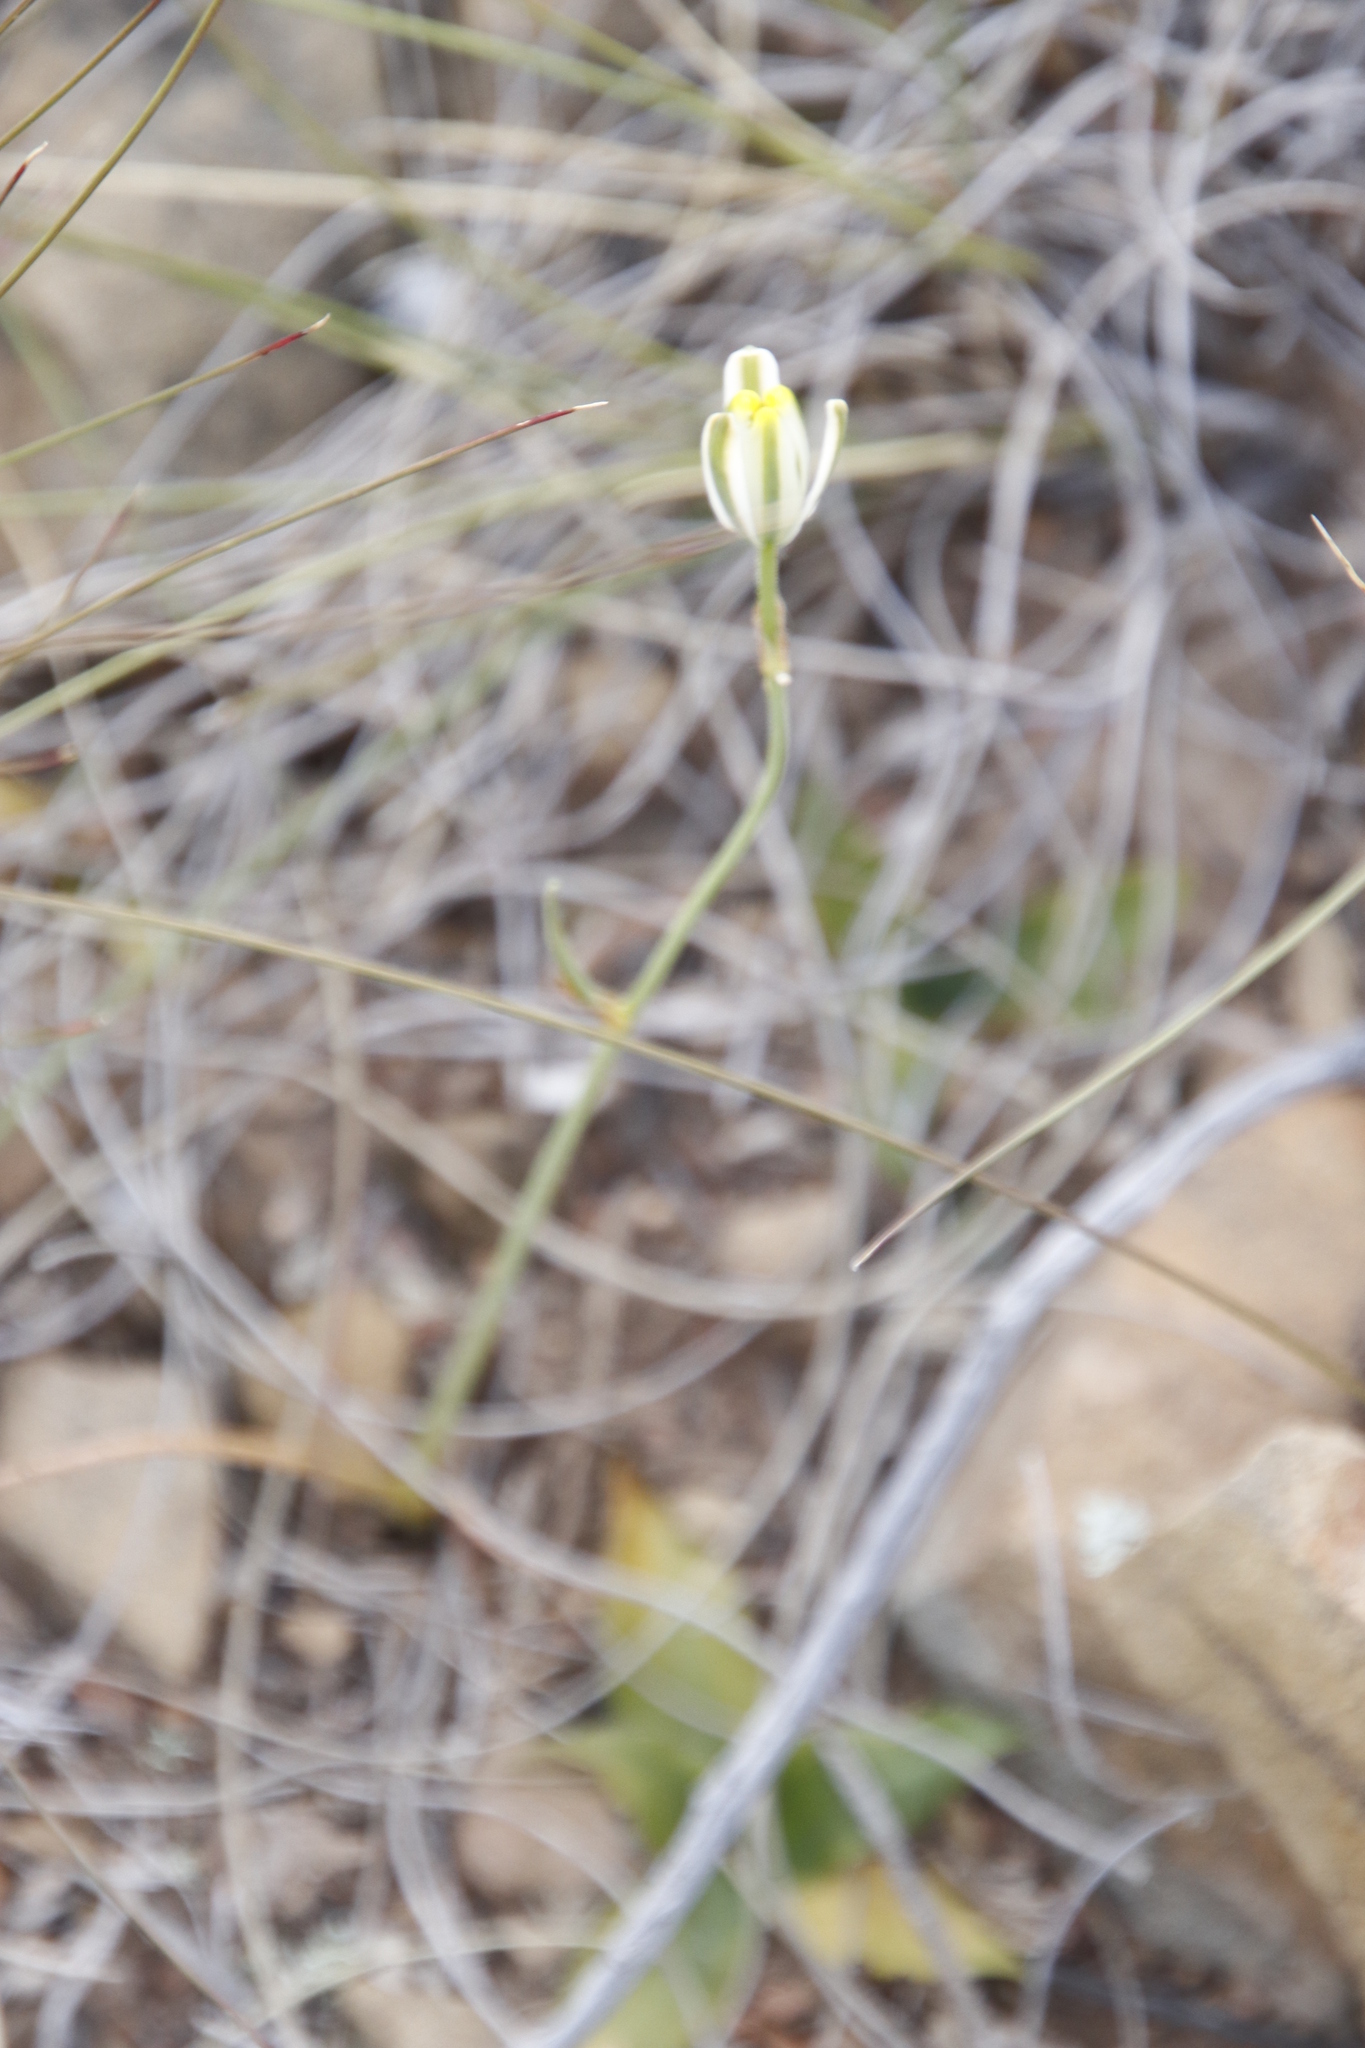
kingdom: Plantae
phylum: Tracheophyta
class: Liliopsida
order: Asparagales
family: Asparagaceae
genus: Albuca
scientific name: Albuca longipes
